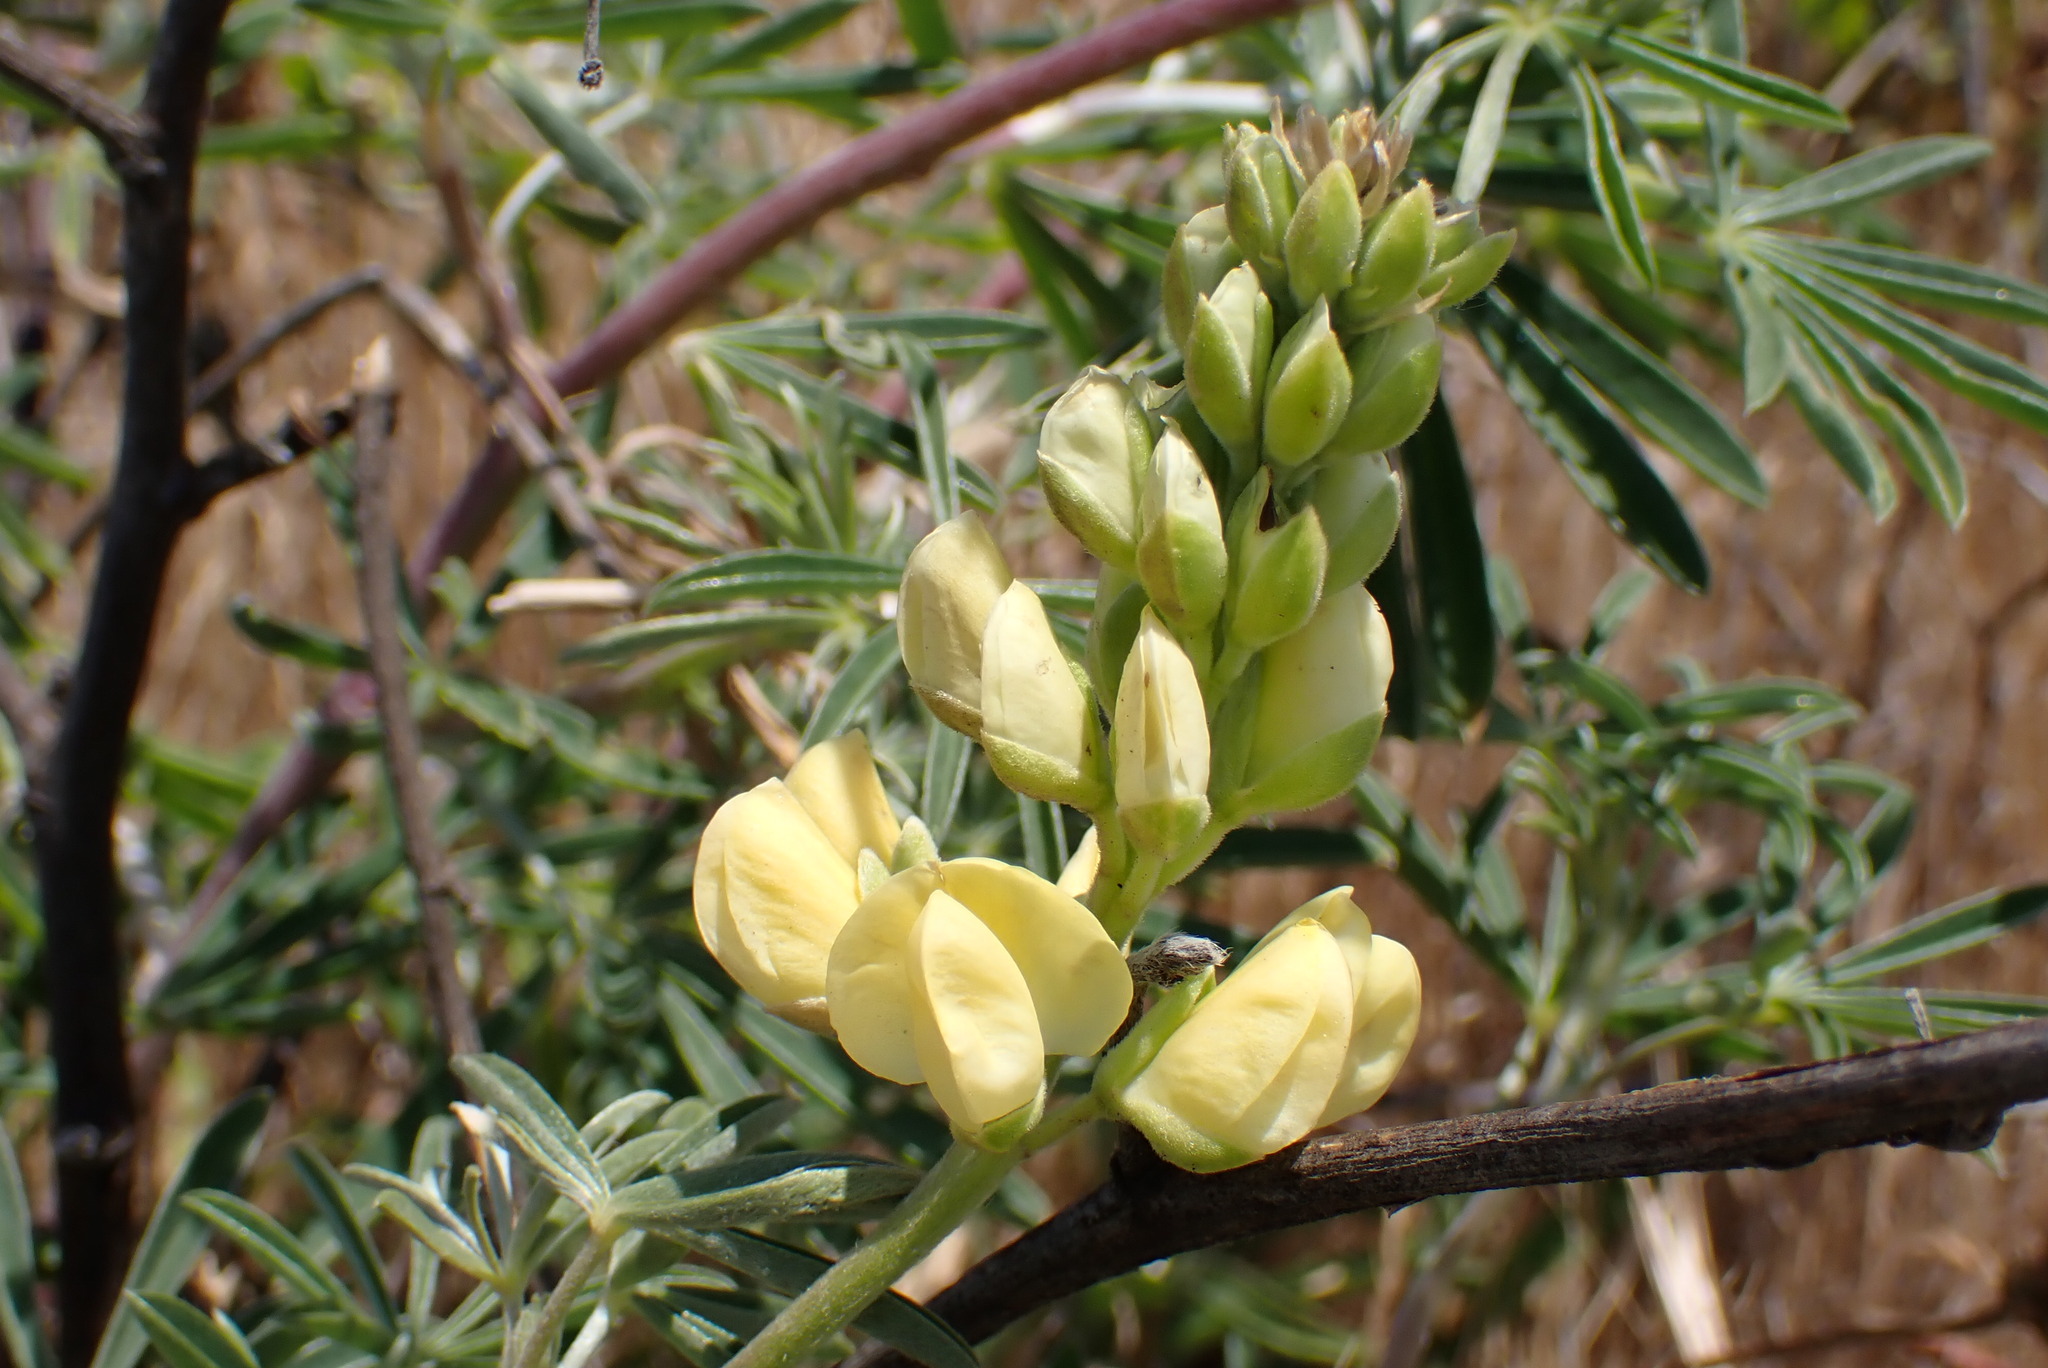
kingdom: Plantae
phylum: Tracheophyta
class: Magnoliopsida
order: Fabales
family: Fabaceae
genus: Lupinus
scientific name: Lupinus arboreus
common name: Yellow bush lupine
